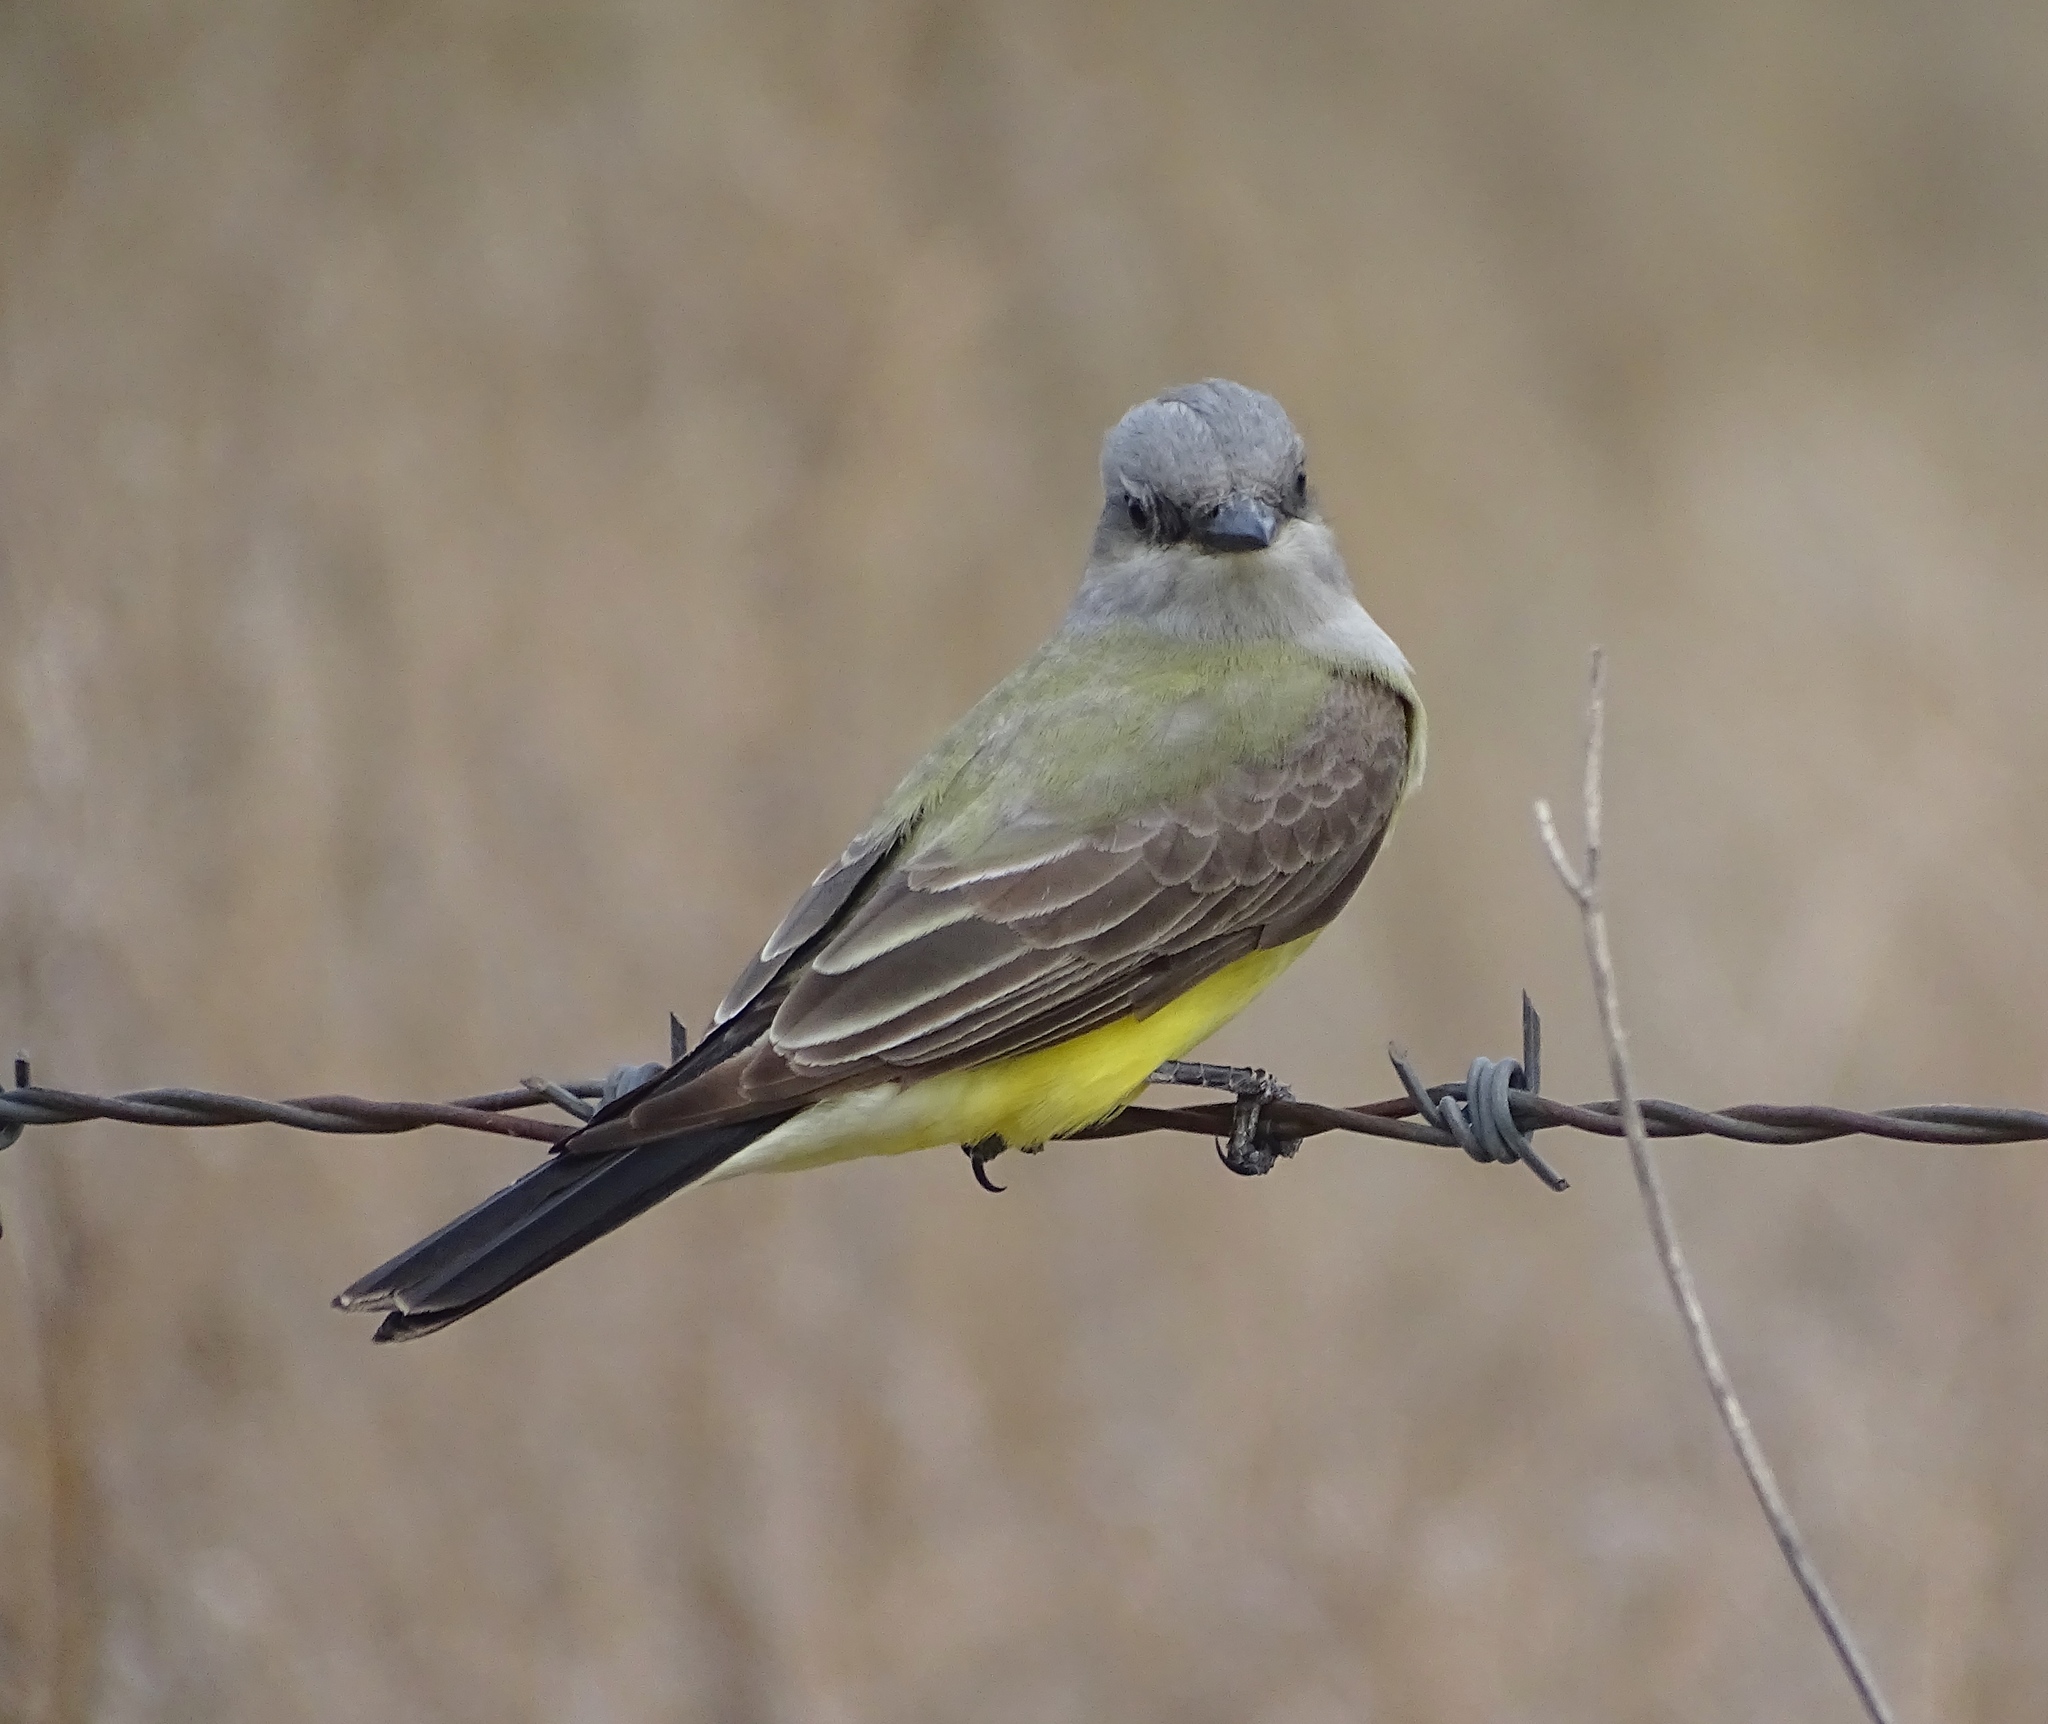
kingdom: Animalia
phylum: Chordata
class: Aves
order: Passeriformes
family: Tyrannidae
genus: Tyrannus
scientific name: Tyrannus verticalis
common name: Western kingbird
